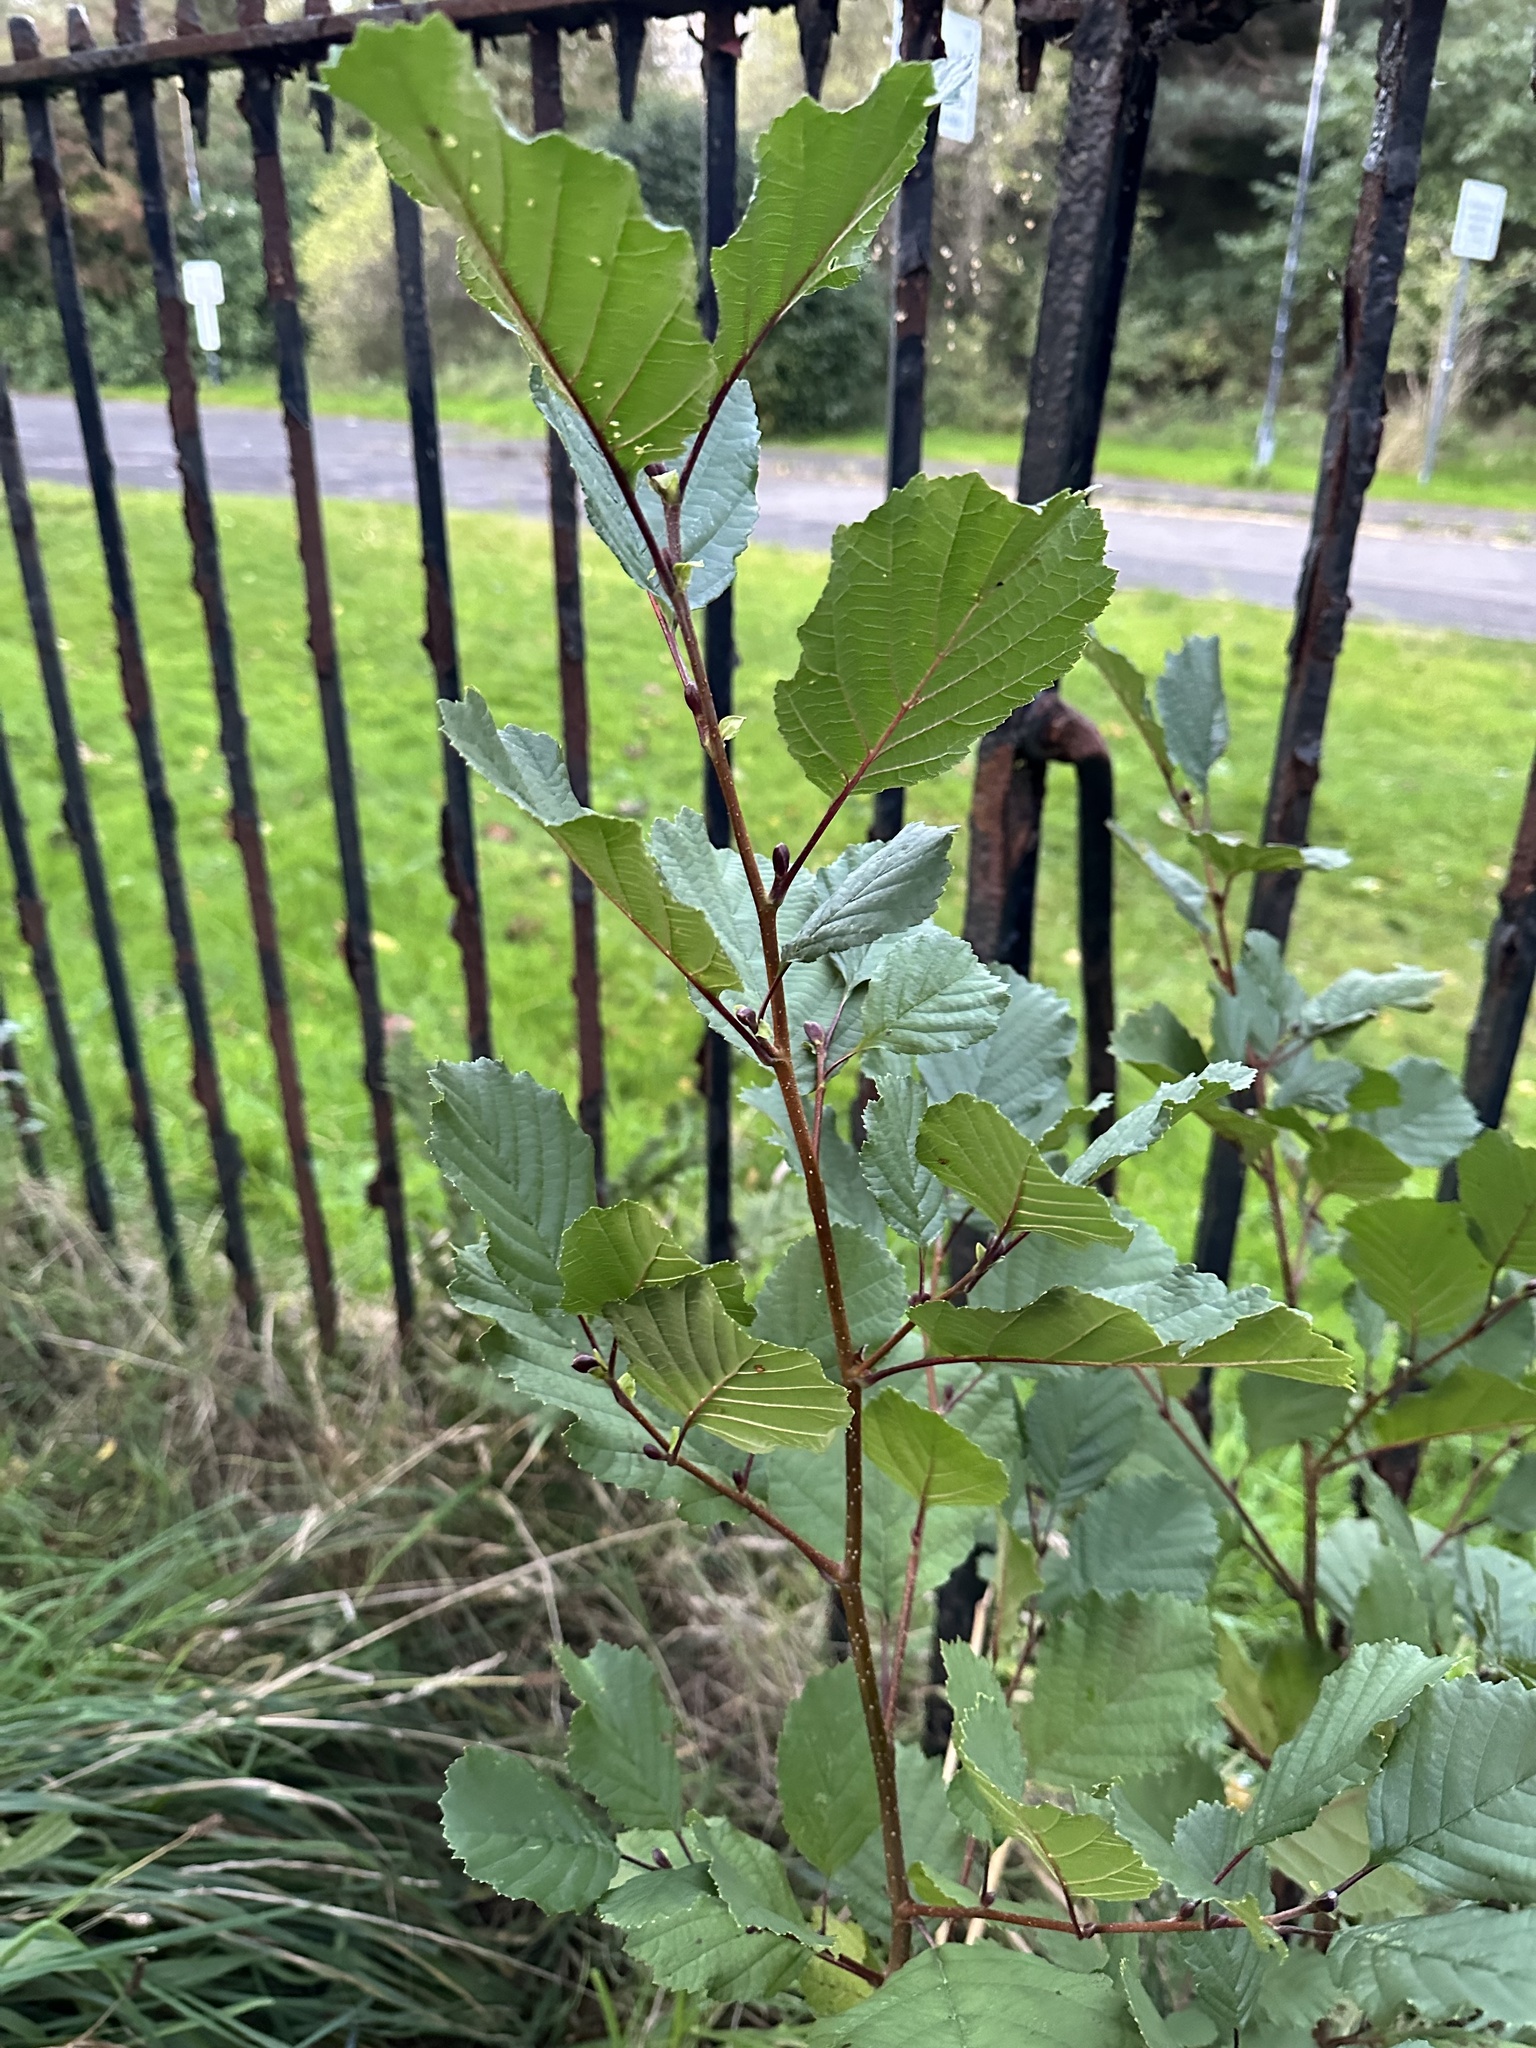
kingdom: Plantae
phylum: Tracheophyta
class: Magnoliopsida
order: Fagales
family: Betulaceae
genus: Alnus
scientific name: Alnus glutinosa
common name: Black alder
